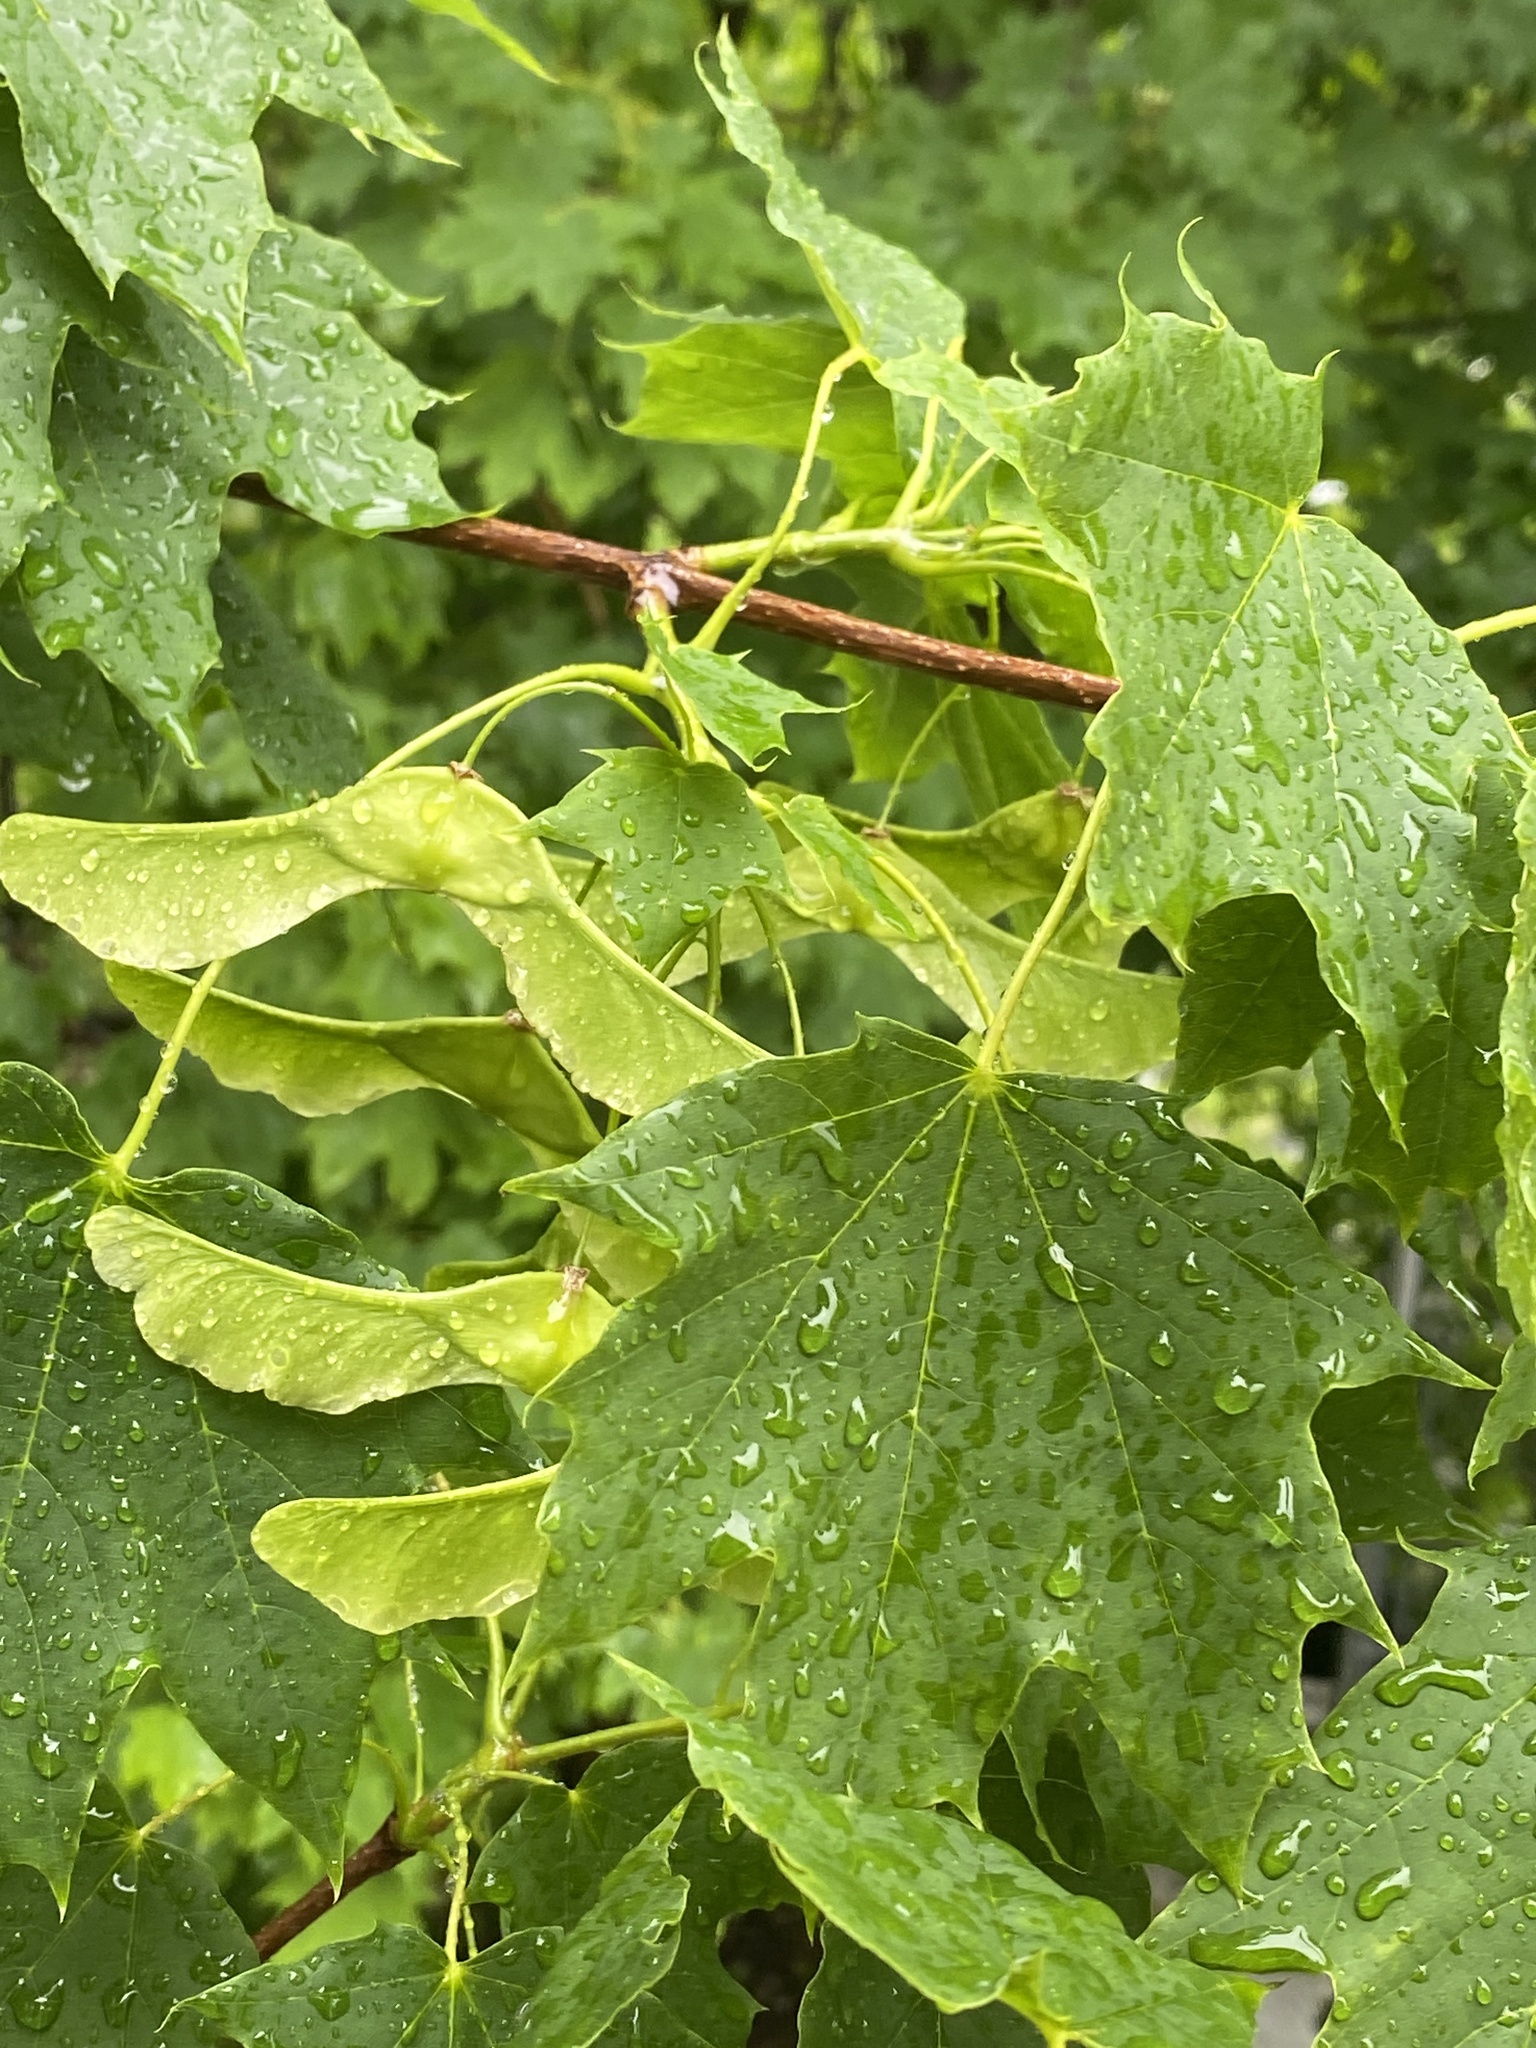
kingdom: Plantae
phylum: Tracheophyta
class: Magnoliopsida
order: Sapindales
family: Sapindaceae
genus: Acer
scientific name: Acer platanoides
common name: Norway maple
